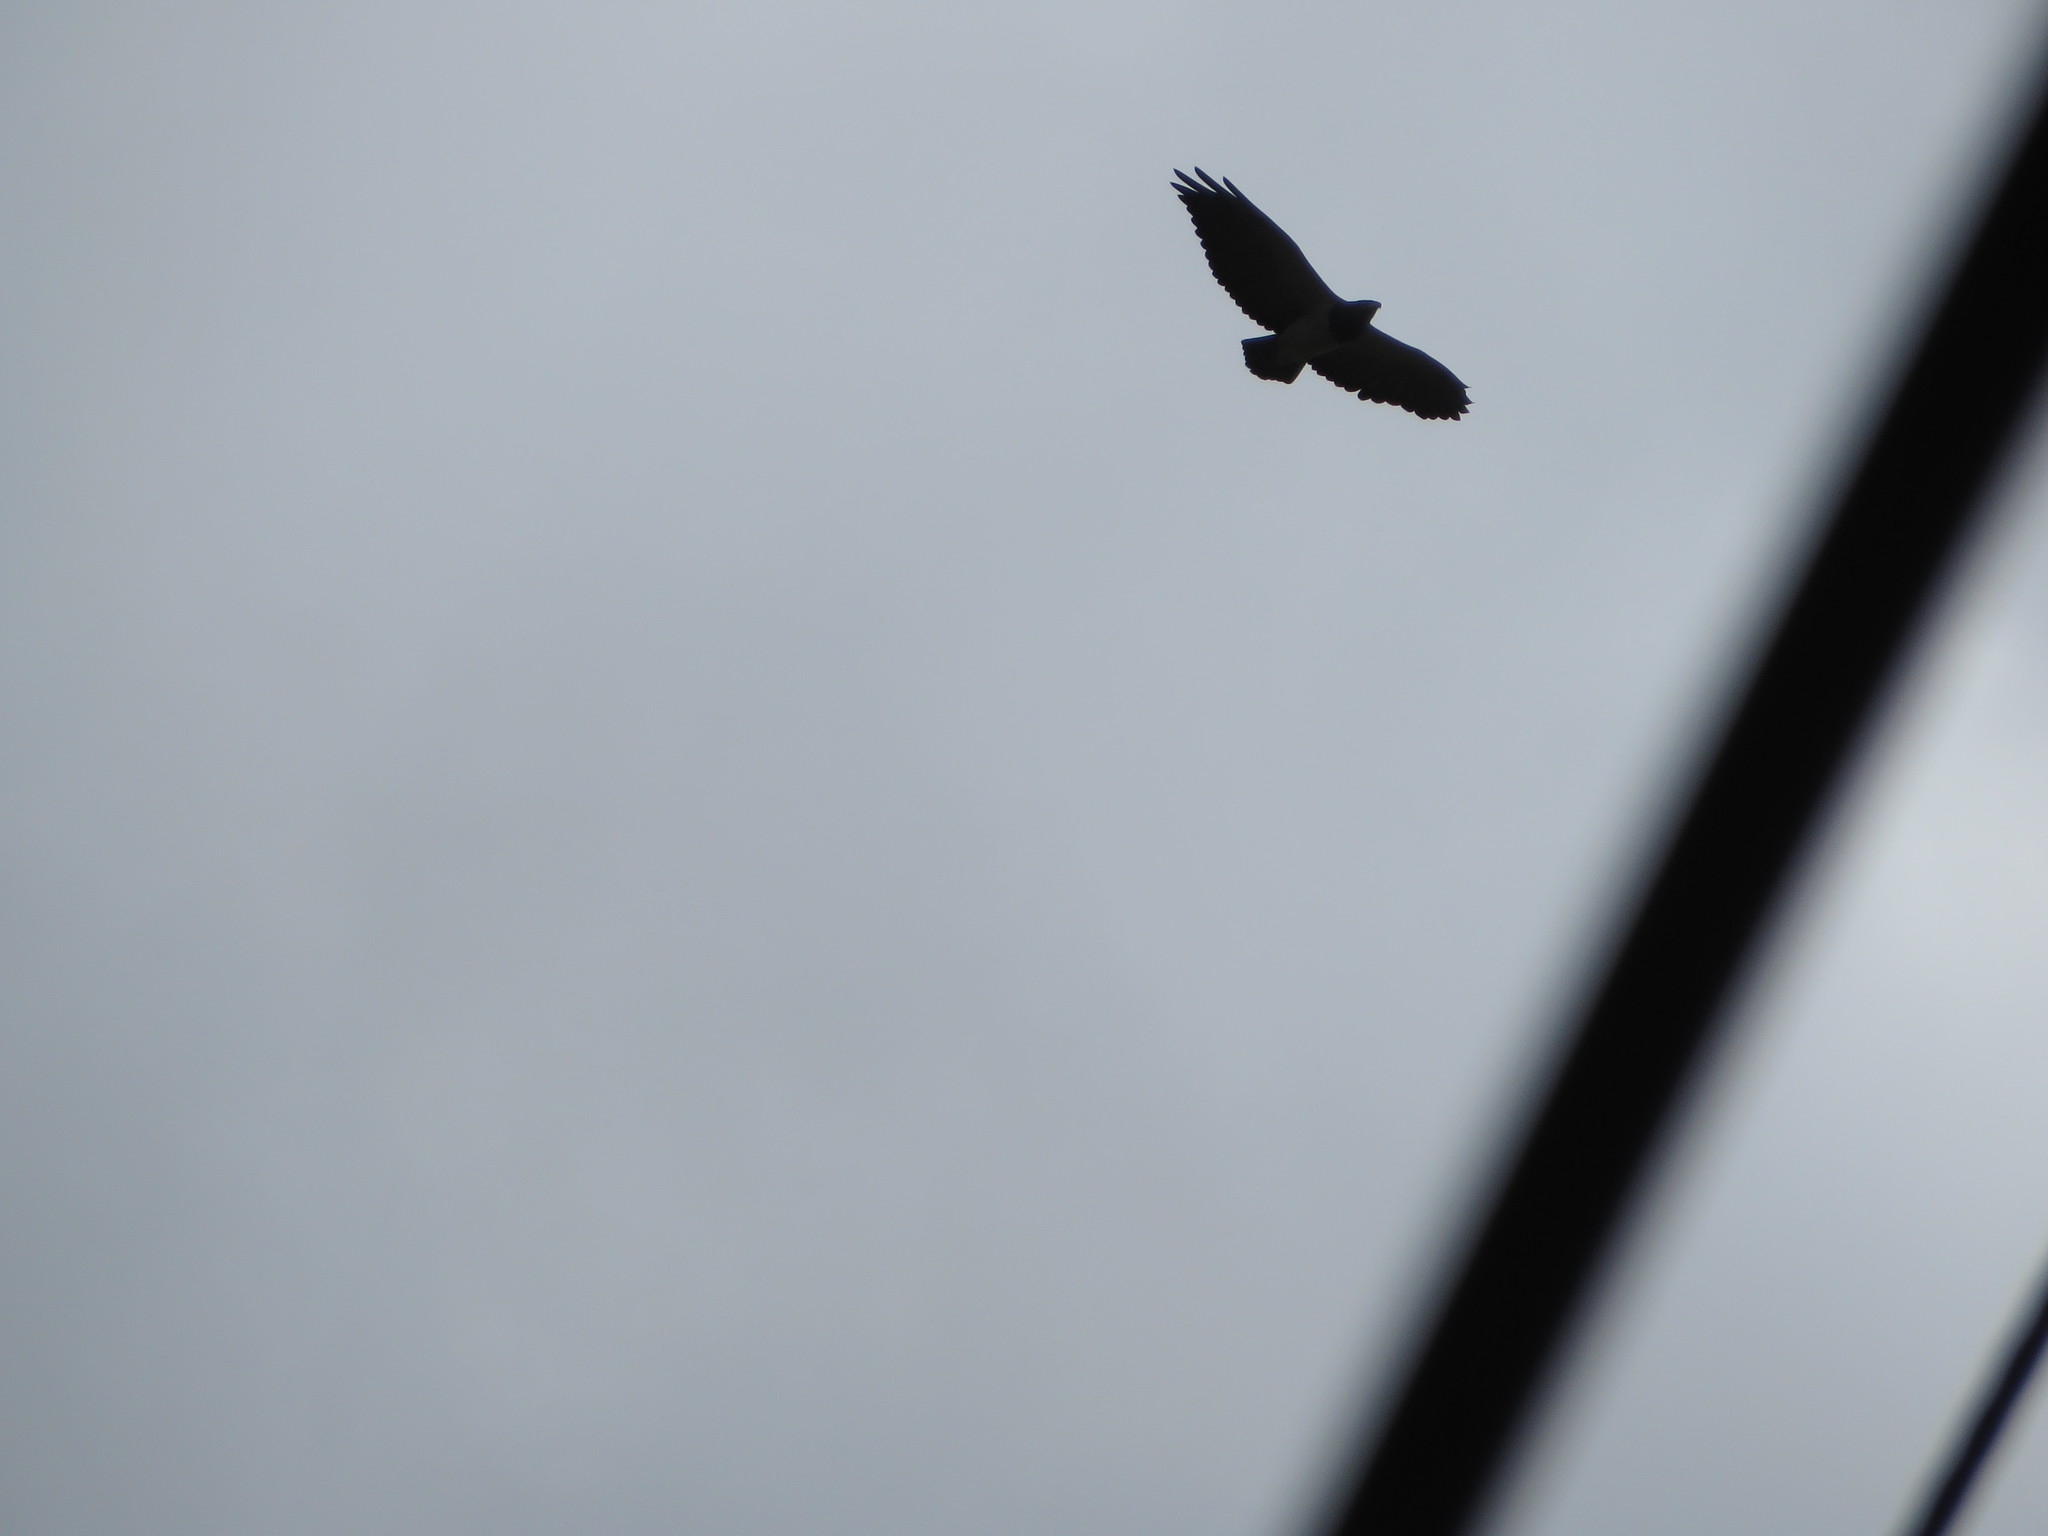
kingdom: Animalia
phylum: Chordata
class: Aves
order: Accipitriformes
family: Accipitridae
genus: Geranoaetus
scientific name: Geranoaetus melanoleucus
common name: Black-chested buzzard-eagle
